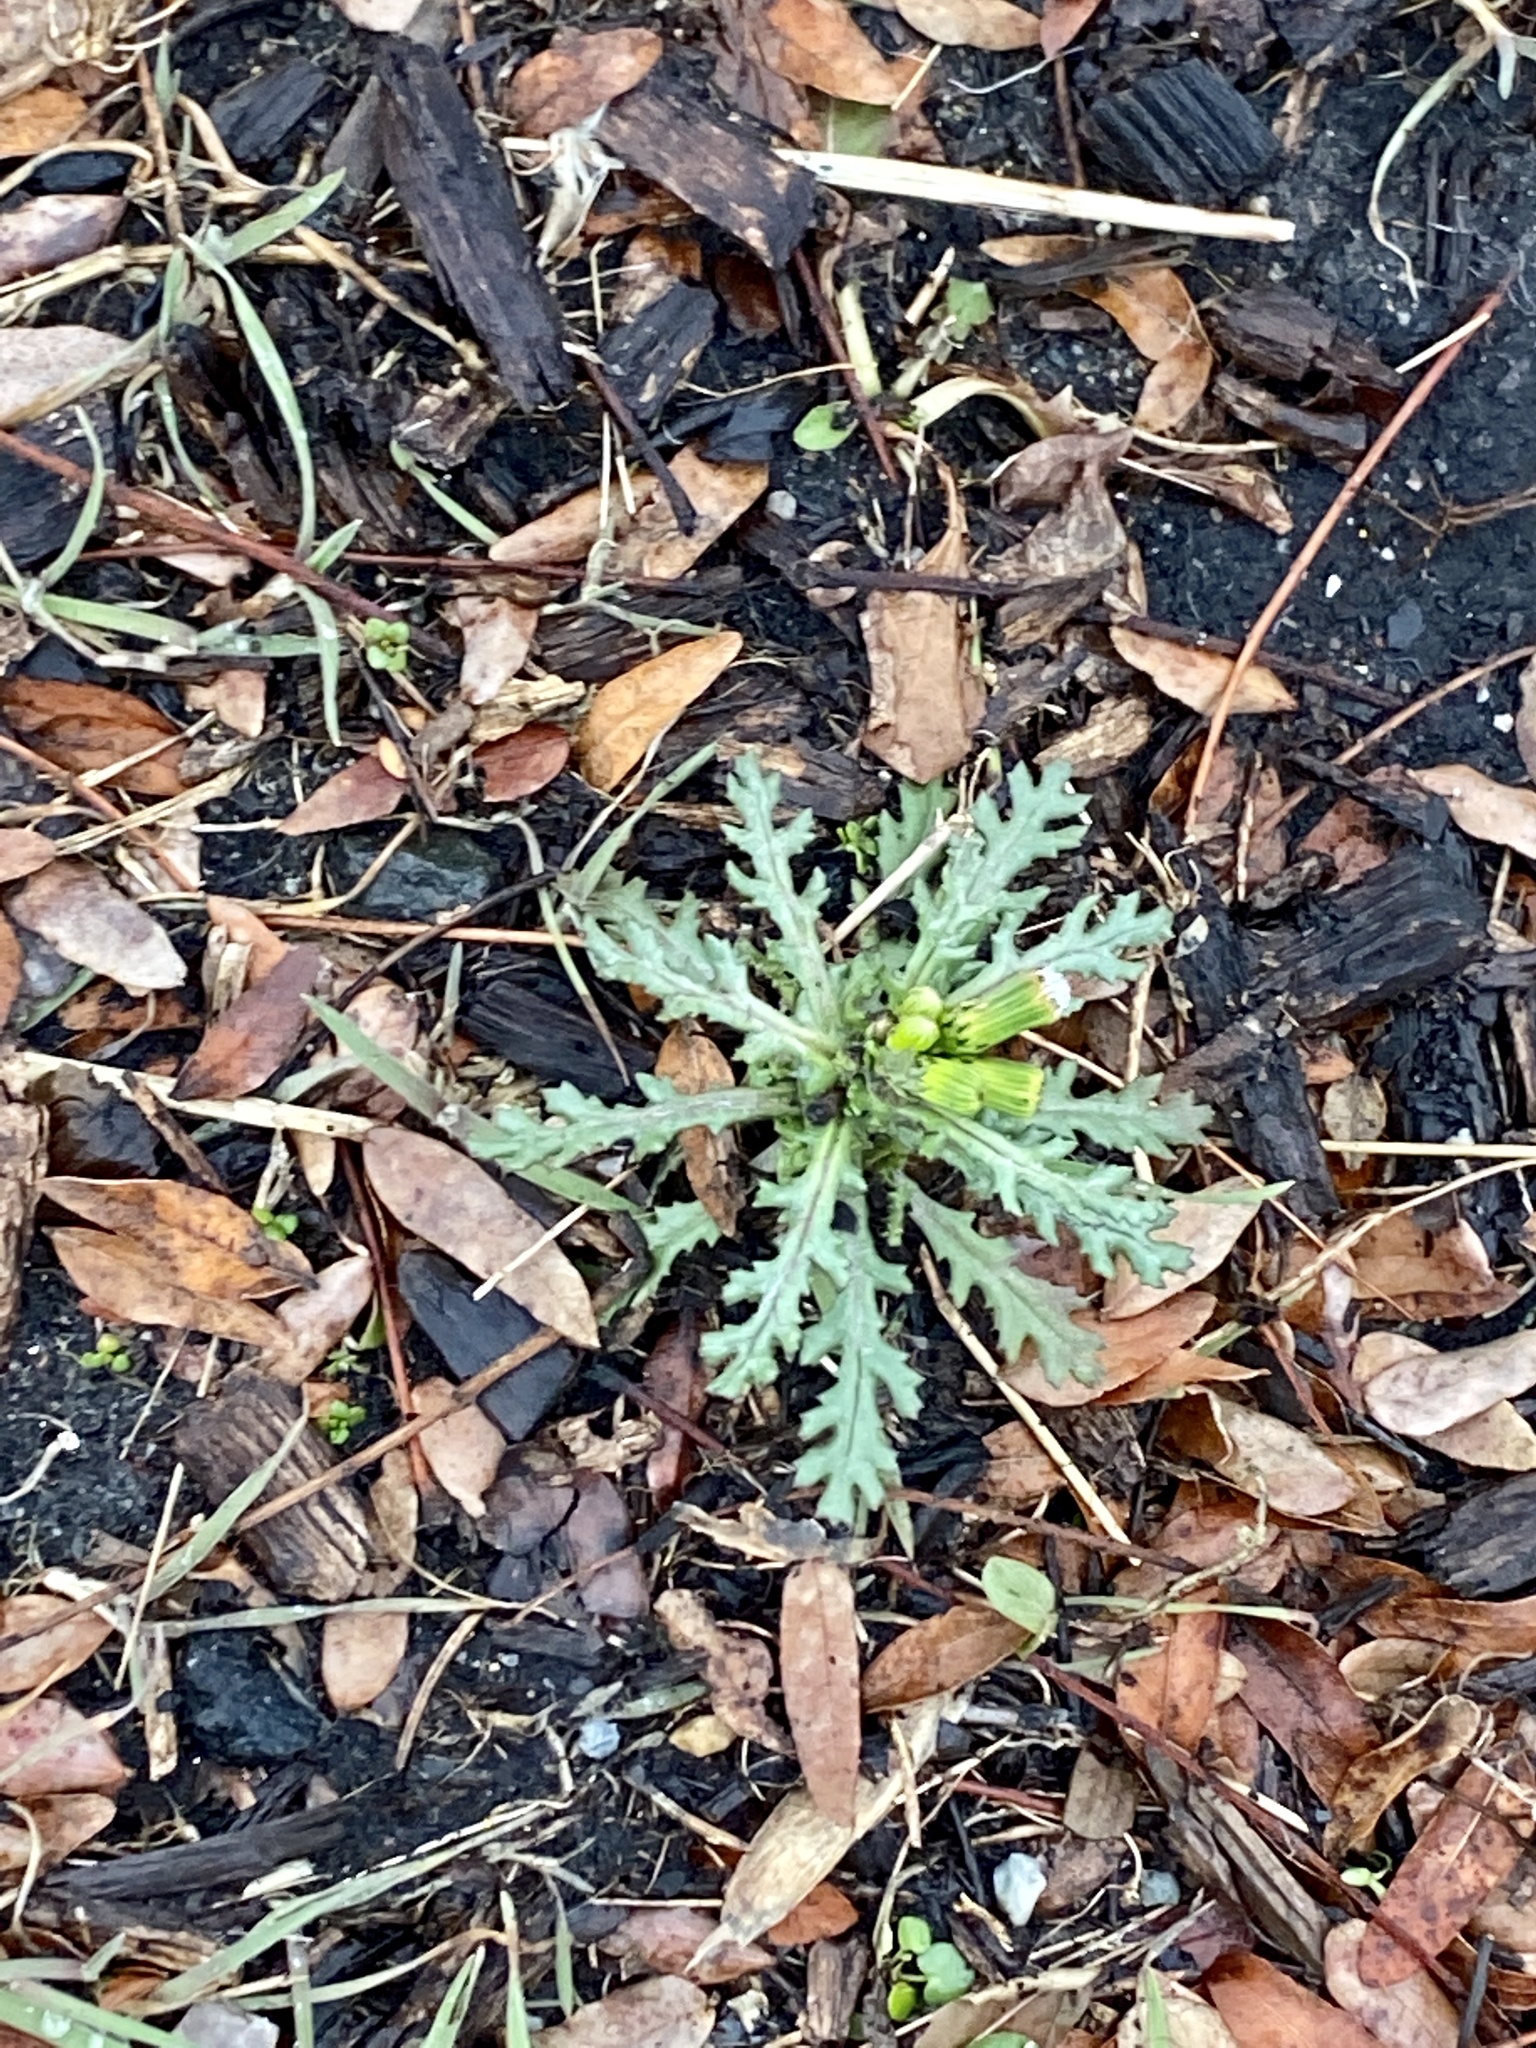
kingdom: Plantae
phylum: Tracheophyta
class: Magnoliopsida
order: Asterales
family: Asteraceae
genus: Senecio
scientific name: Senecio vulgaris
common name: Old-man-in-the-spring
